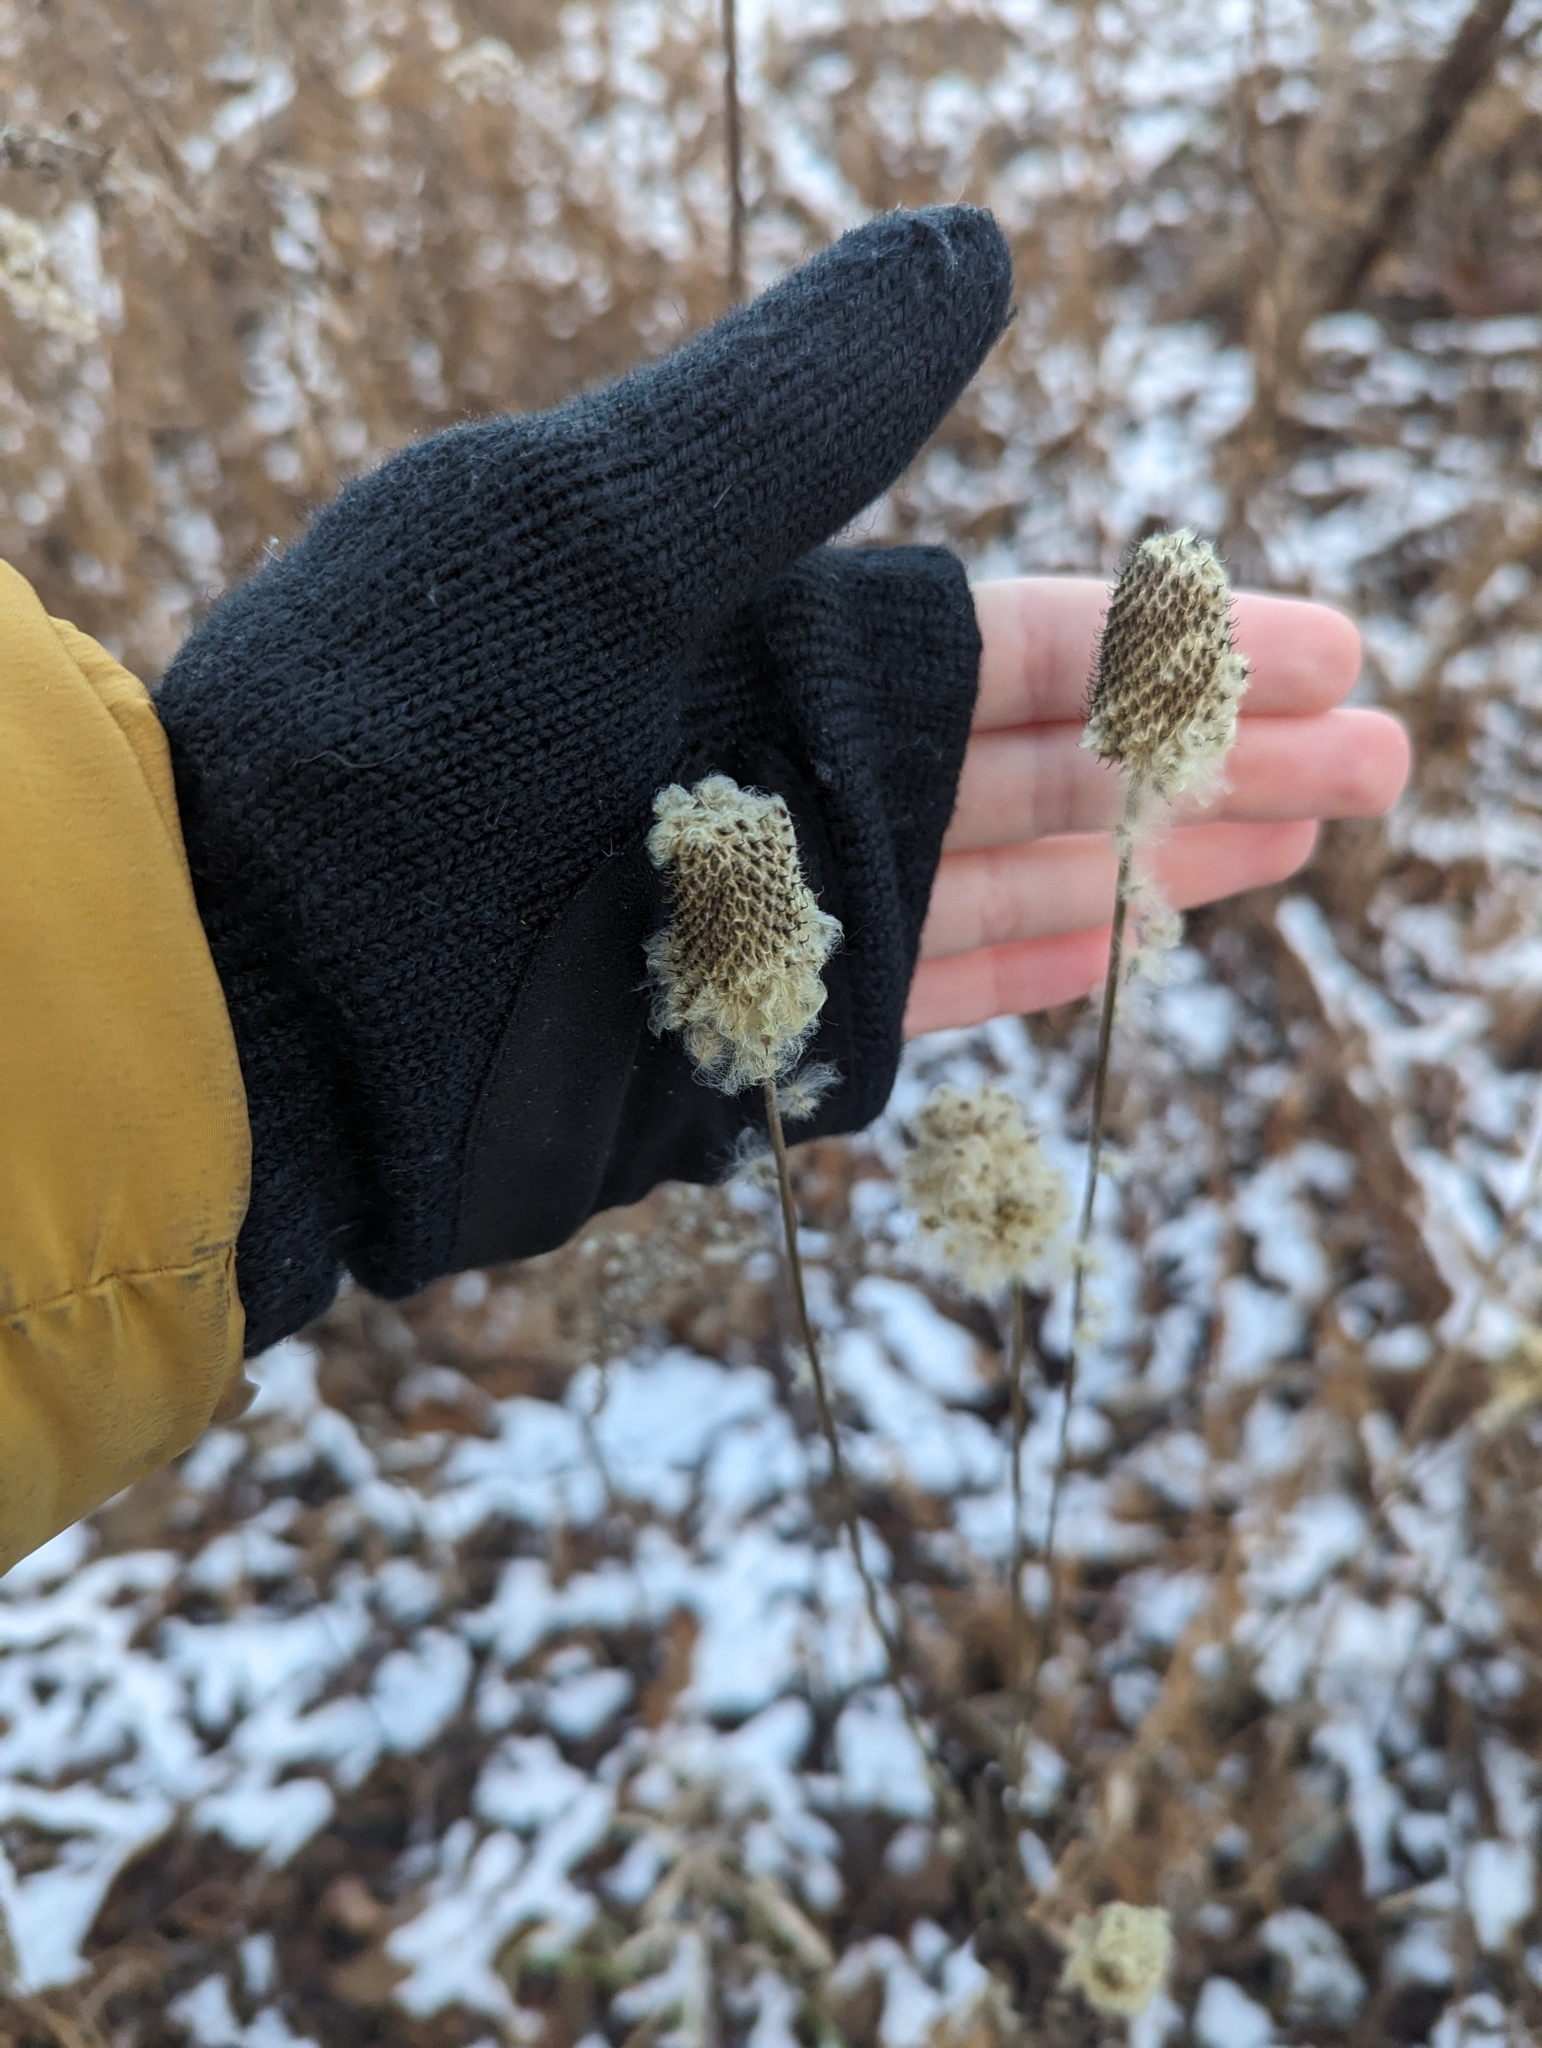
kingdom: Plantae
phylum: Tracheophyta
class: Magnoliopsida
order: Ranunculales
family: Ranunculaceae
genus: Anemone
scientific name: Anemone virginiana
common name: Tall anemone
